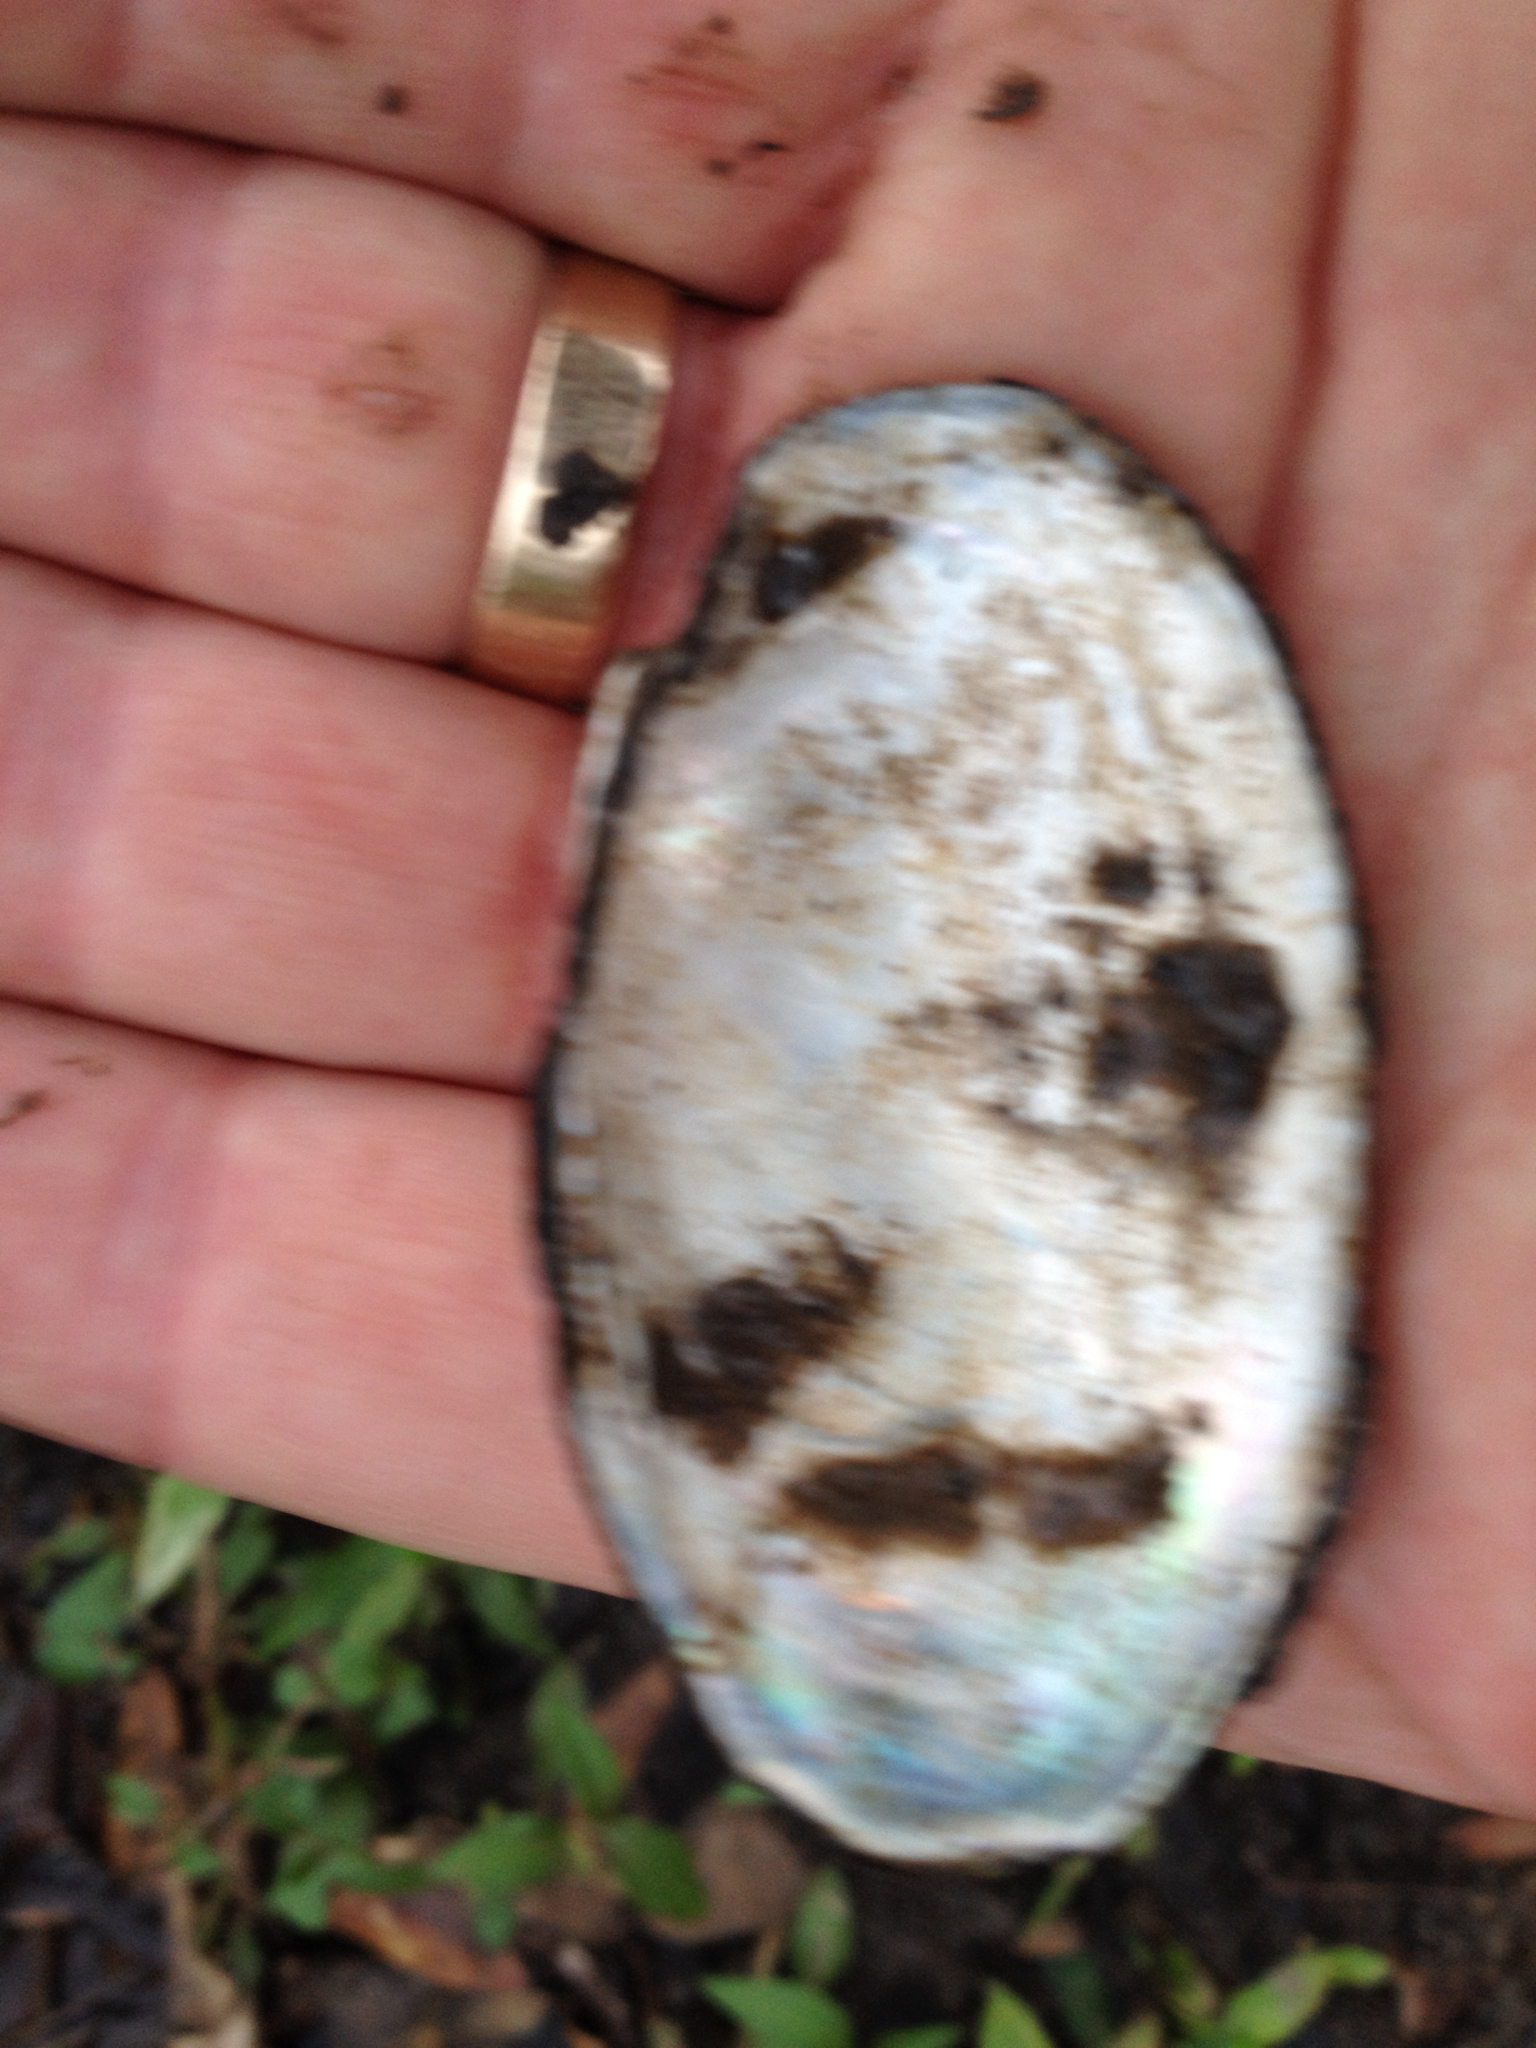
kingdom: Animalia
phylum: Mollusca
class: Bivalvia
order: Unionida
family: Unionidae
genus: Toxolasma
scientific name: Toxolasma texasiense
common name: Texas lilliput
